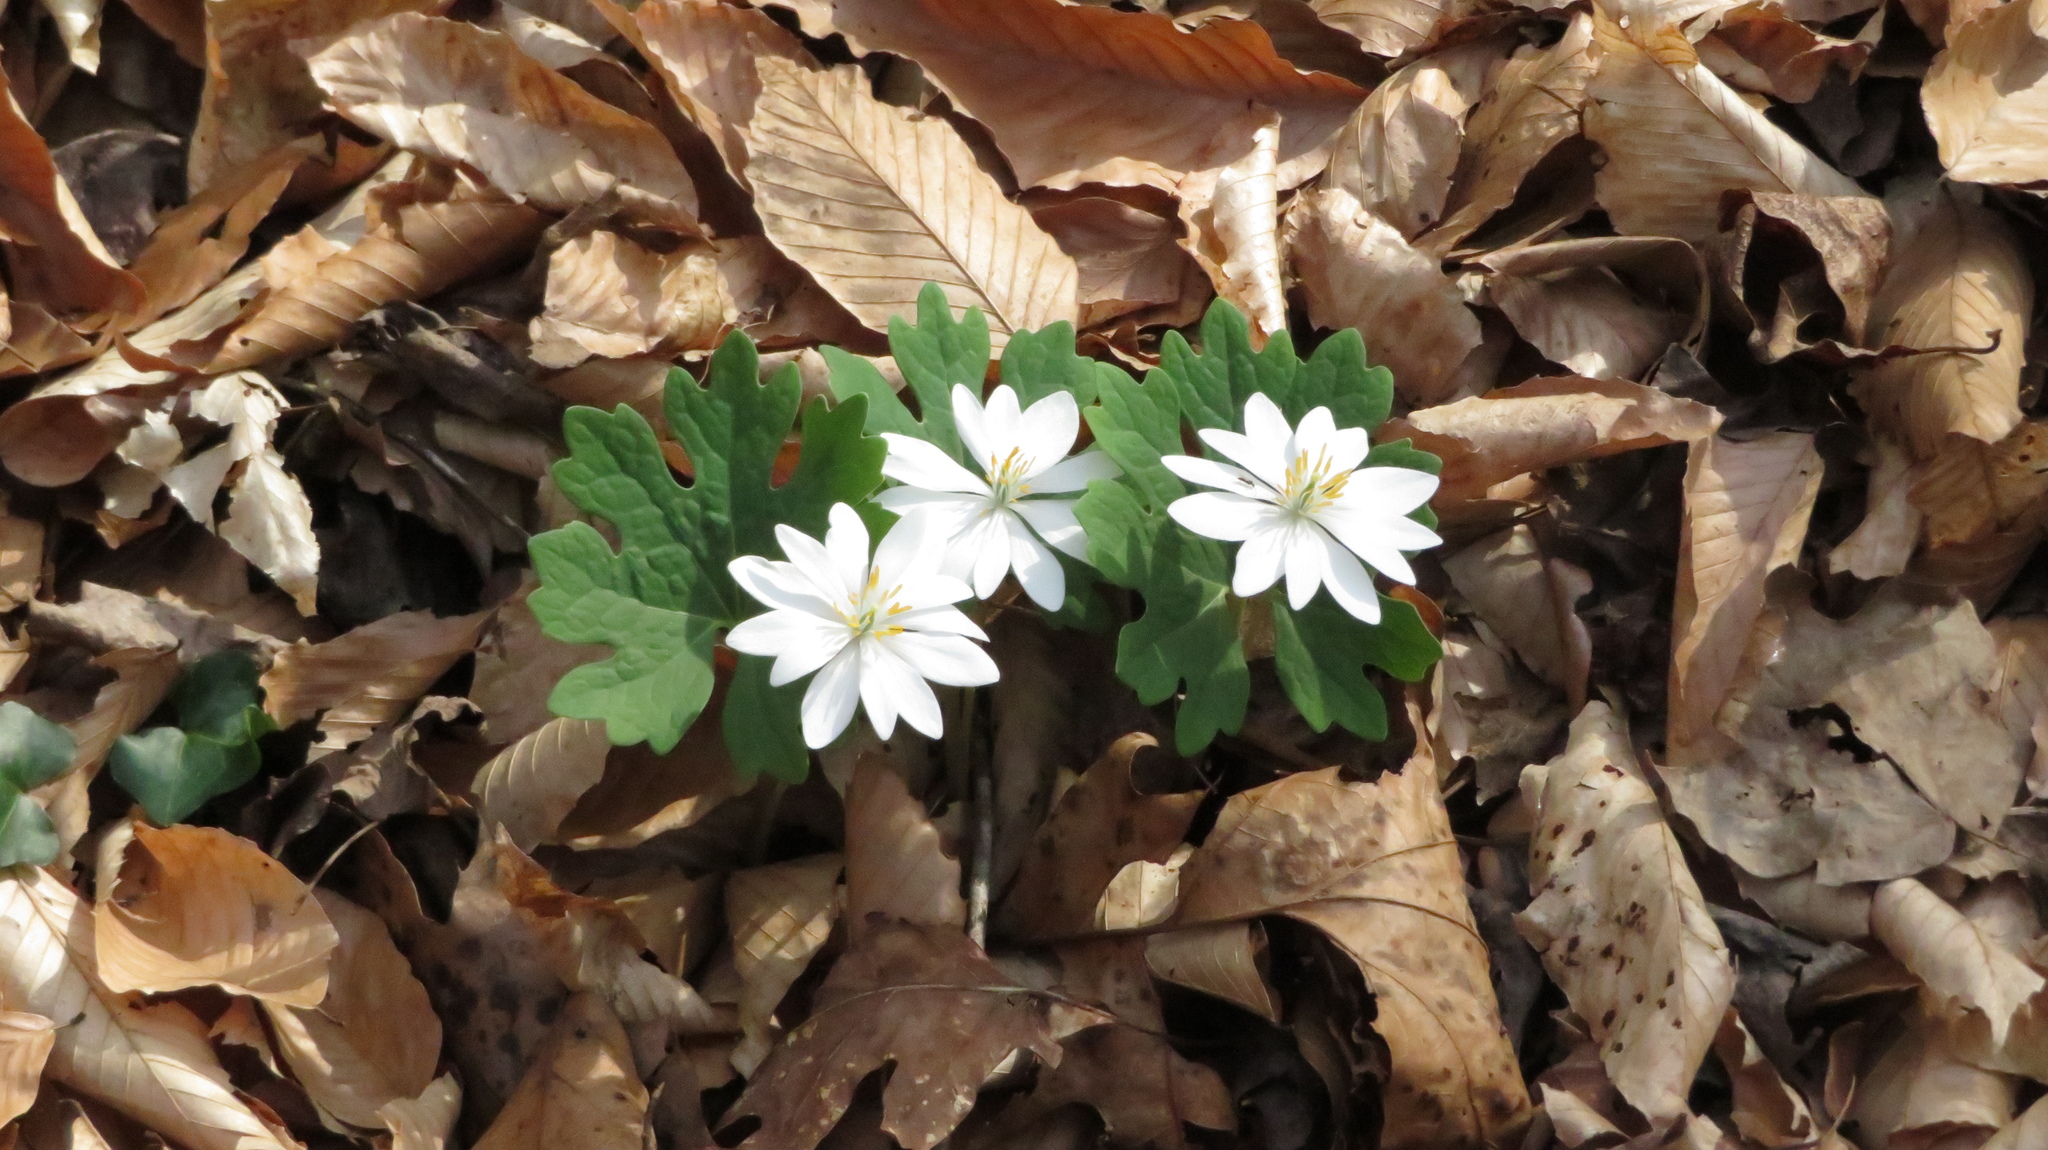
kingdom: Plantae
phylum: Tracheophyta
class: Magnoliopsida
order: Ranunculales
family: Papaveraceae
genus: Sanguinaria
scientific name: Sanguinaria canadensis
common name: Bloodroot
